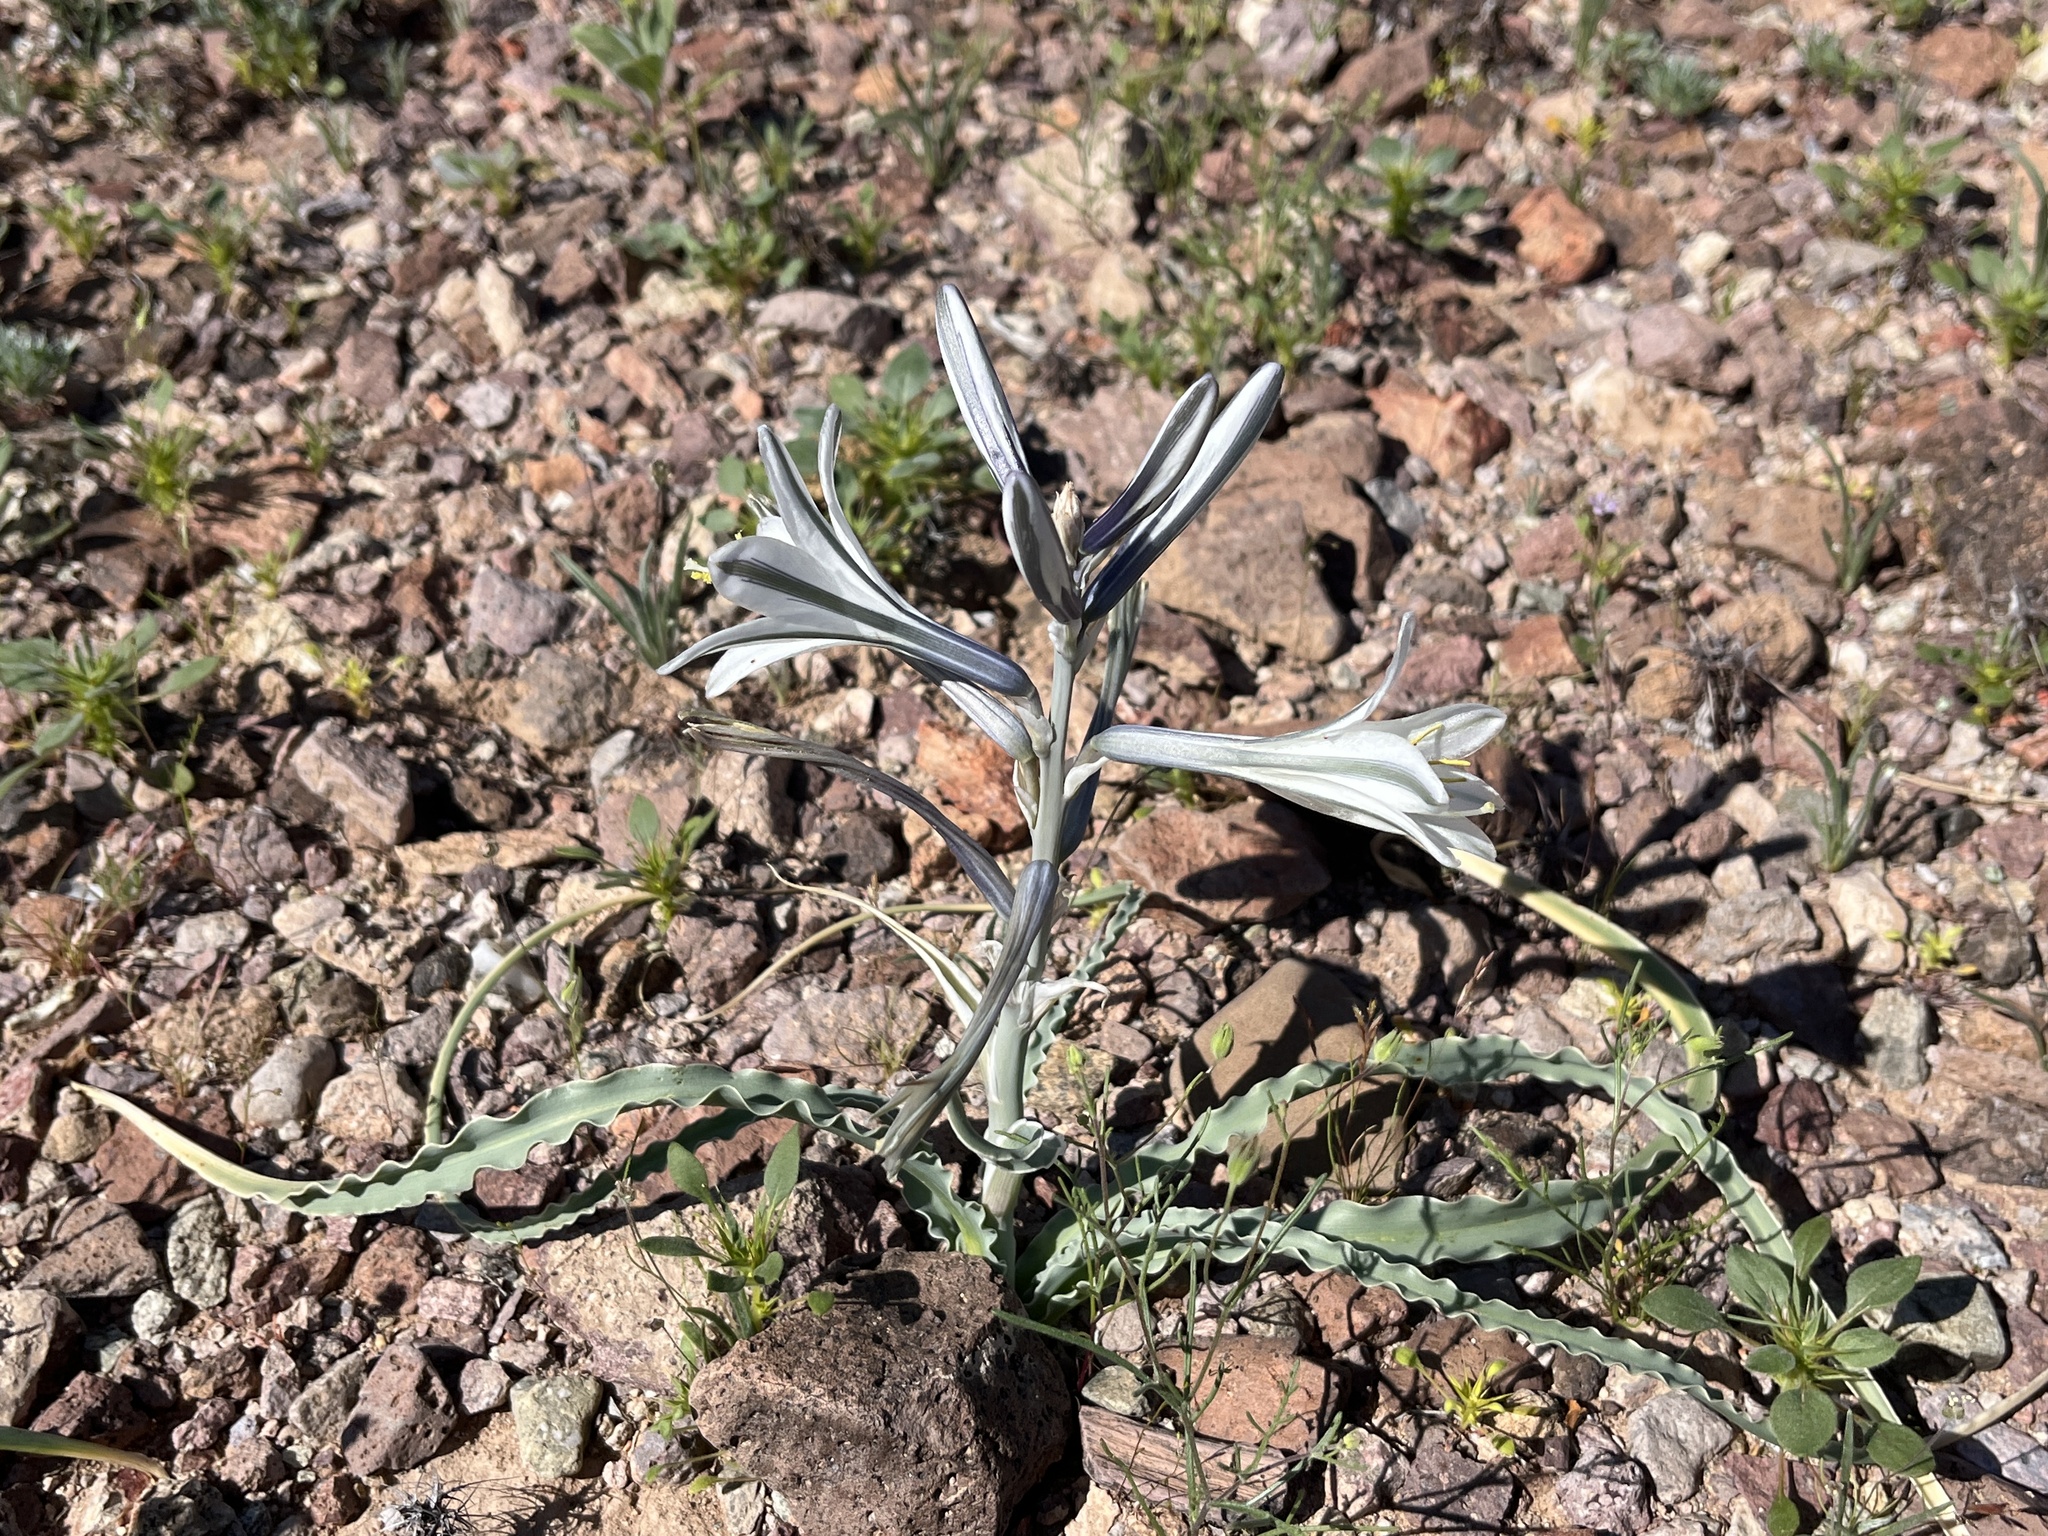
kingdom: Plantae
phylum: Tracheophyta
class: Liliopsida
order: Asparagales
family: Asparagaceae
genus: Hesperocallis
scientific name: Hesperocallis undulata
